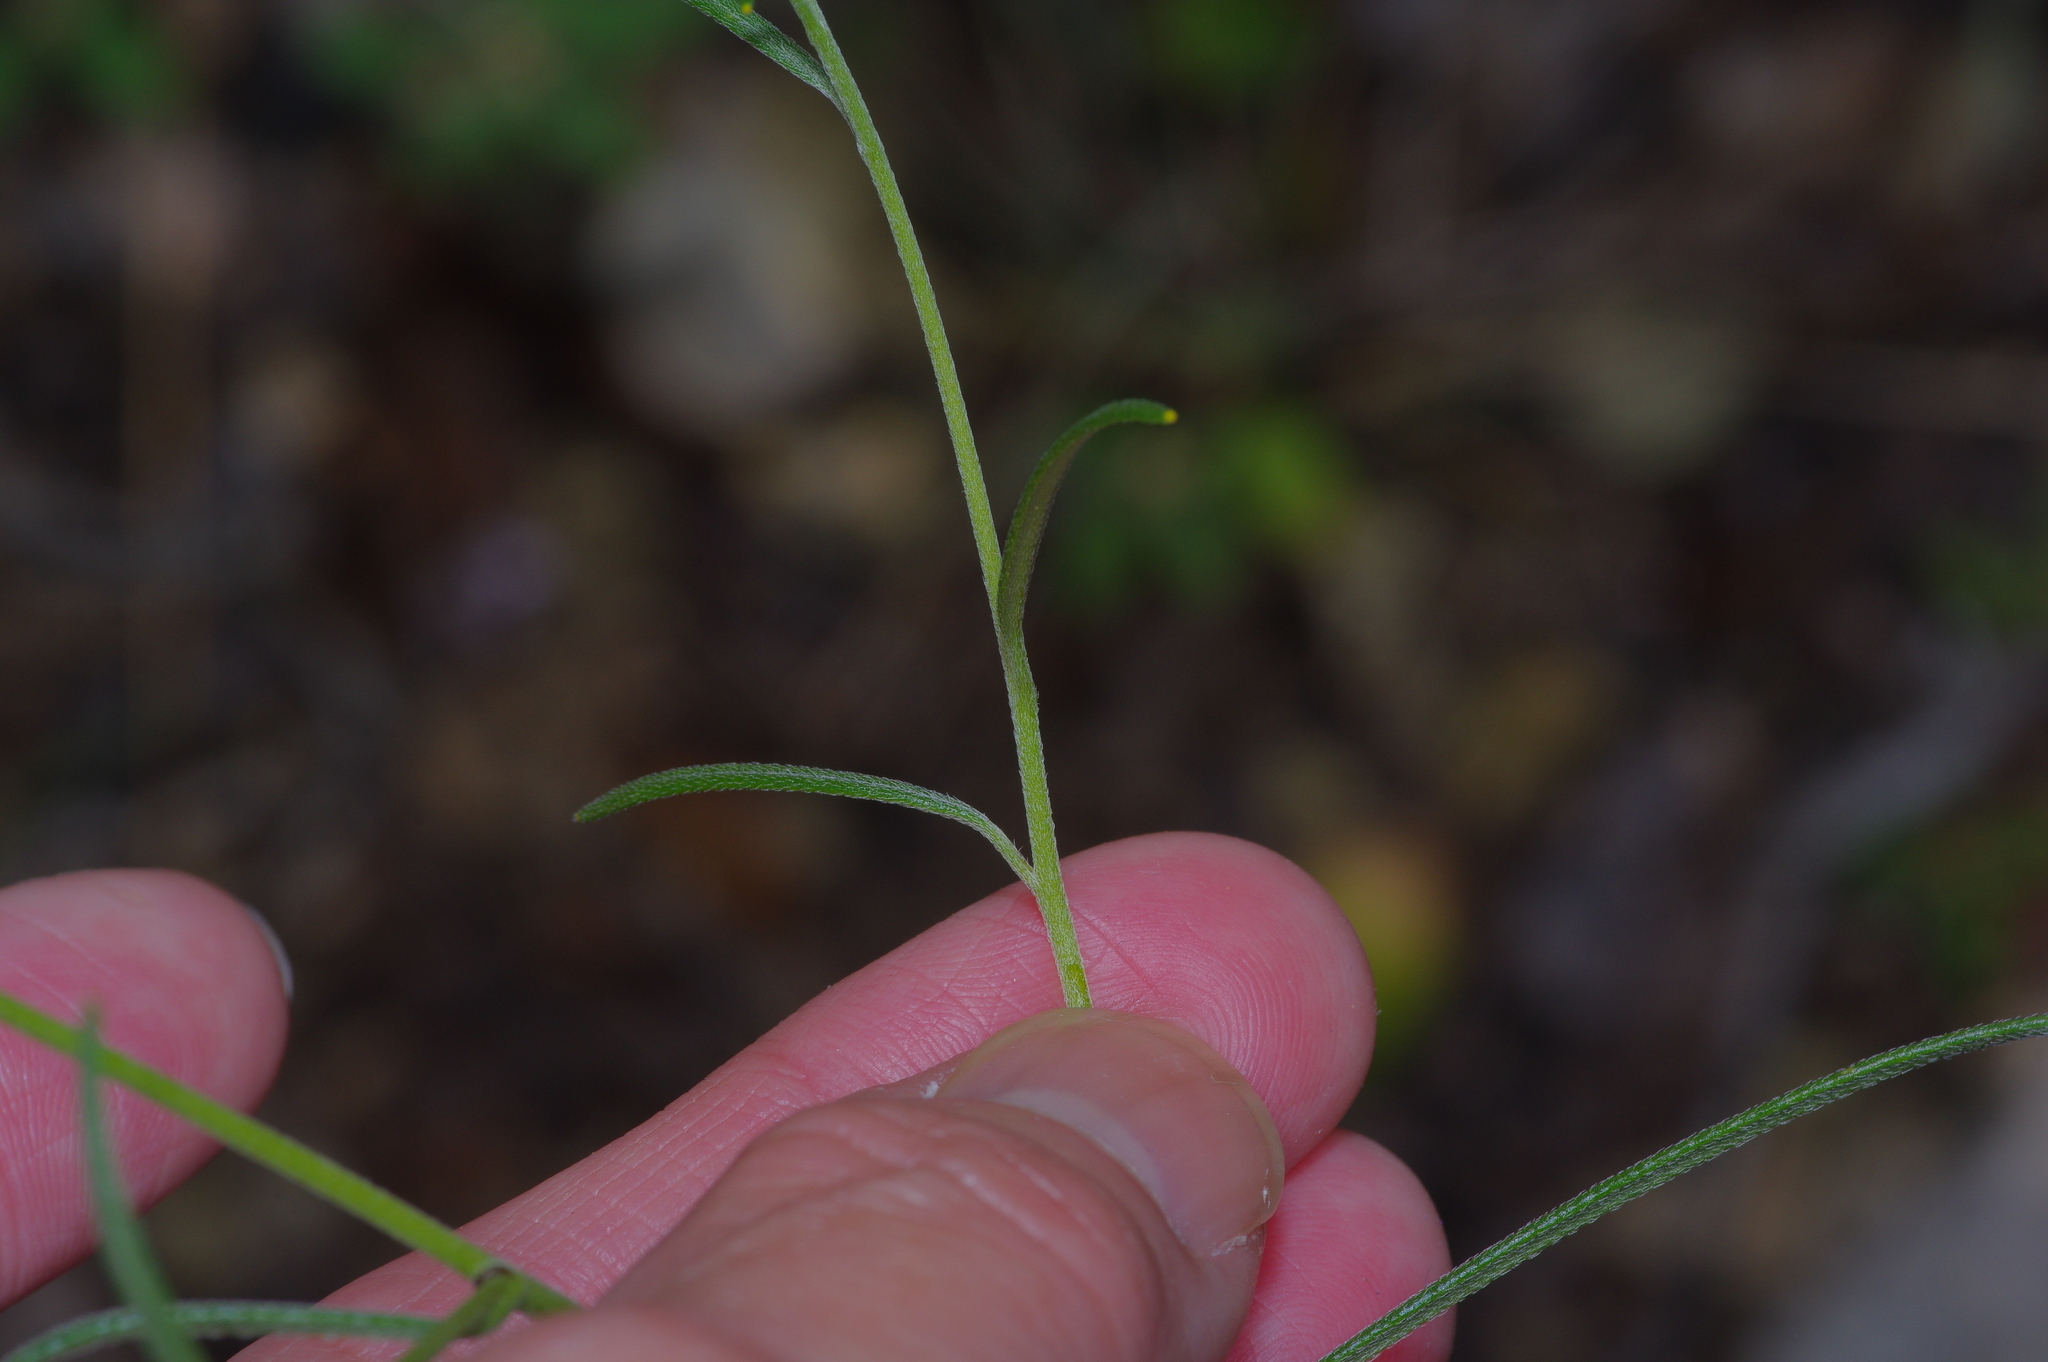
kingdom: Plantae
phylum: Tracheophyta
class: Magnoliopsida
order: Asterales
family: Asteraceae
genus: Palafoxia
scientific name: Palafoxia callosa
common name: Small palafox
